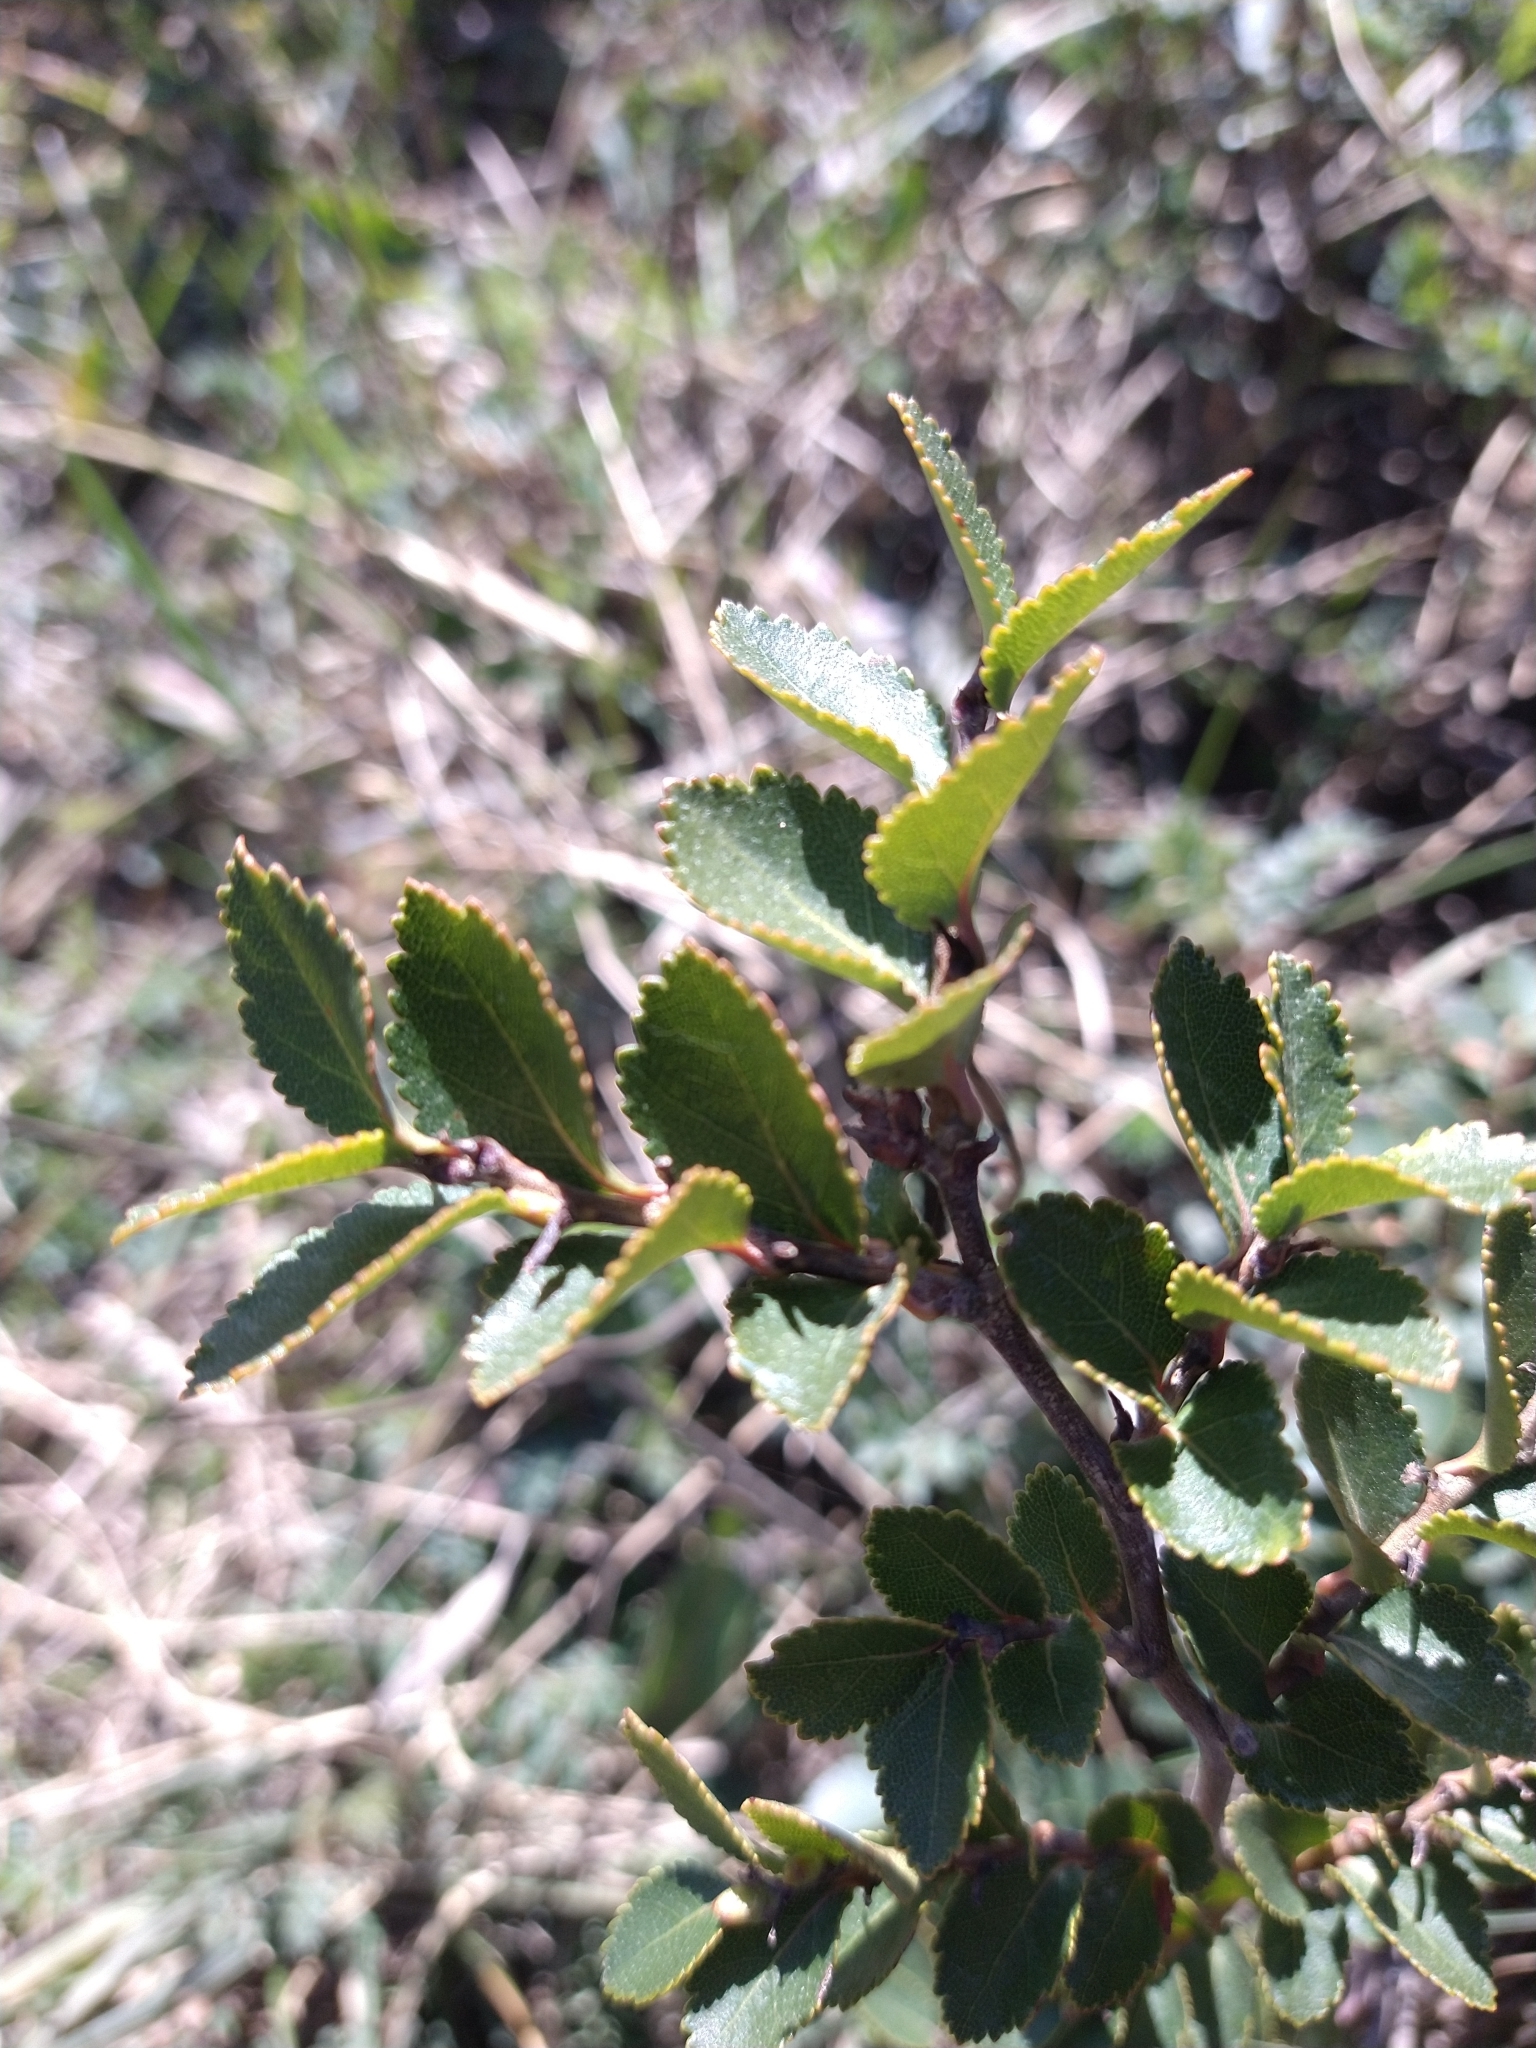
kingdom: Plantae
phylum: Tracheophyta
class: Magnoliopsida
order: Fagales
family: Nothofagaceae
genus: Nothofagus
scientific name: Nothofagus betuloides
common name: Magellan's beech
